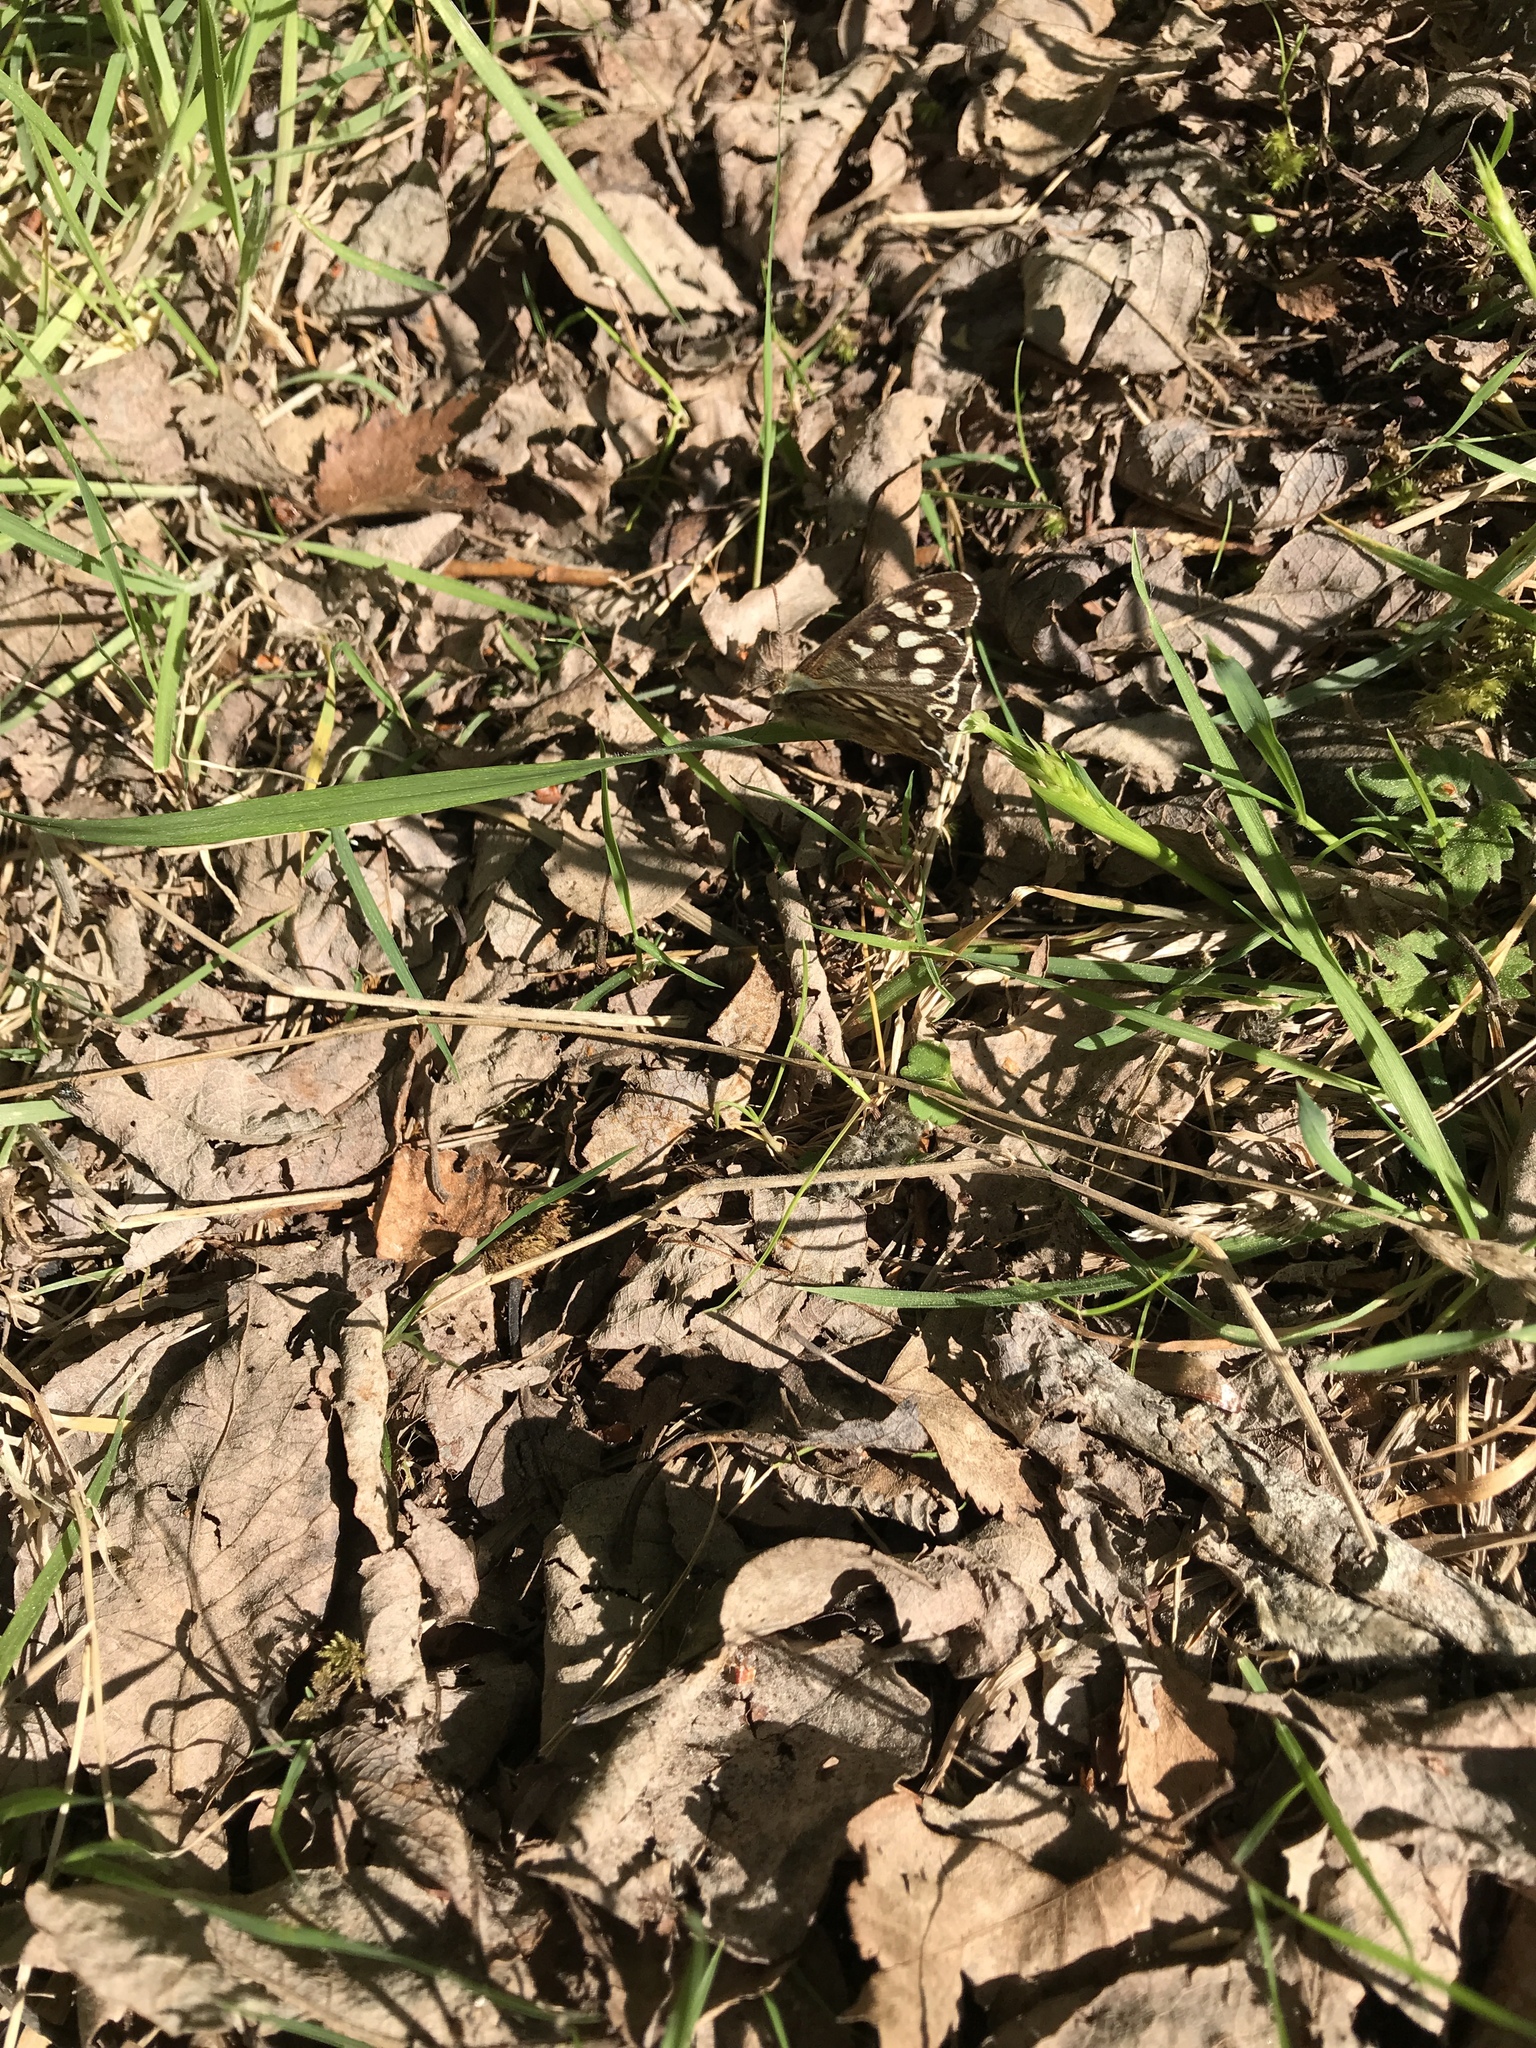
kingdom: Animalia
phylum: Arthropoda
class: Insecta
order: Lepidoptera
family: Nymphalidae
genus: Pararge
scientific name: Pararge aegeria
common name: Speckled wood
